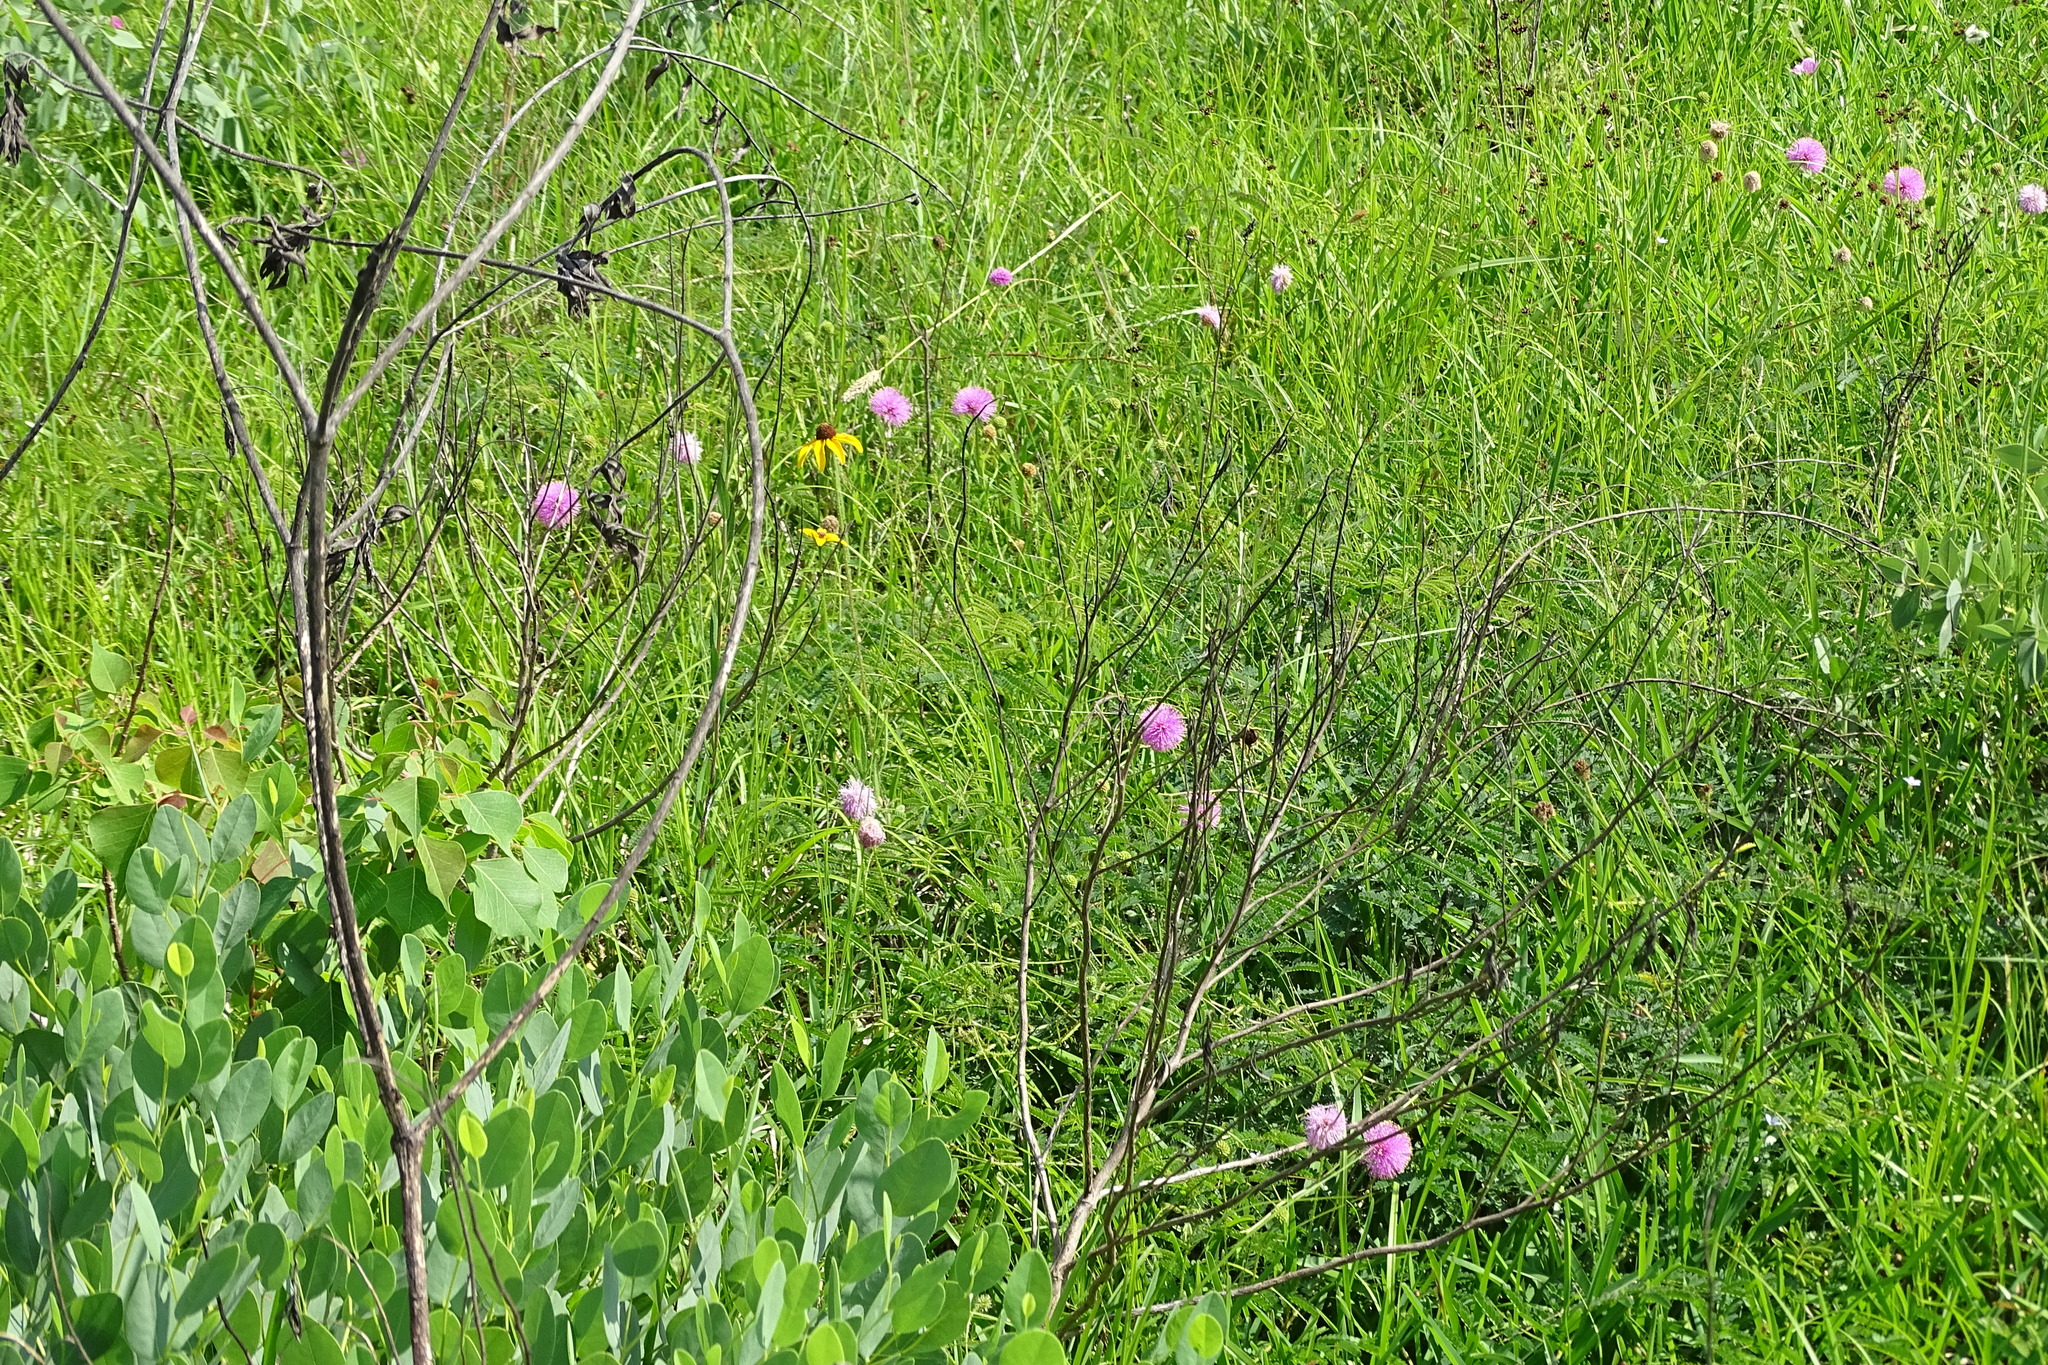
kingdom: Plantae
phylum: Tracheophyta
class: Magnoliopsida
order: Fabales
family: Fabaceae
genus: Mimosa
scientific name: Mimosa quadrivalvis
